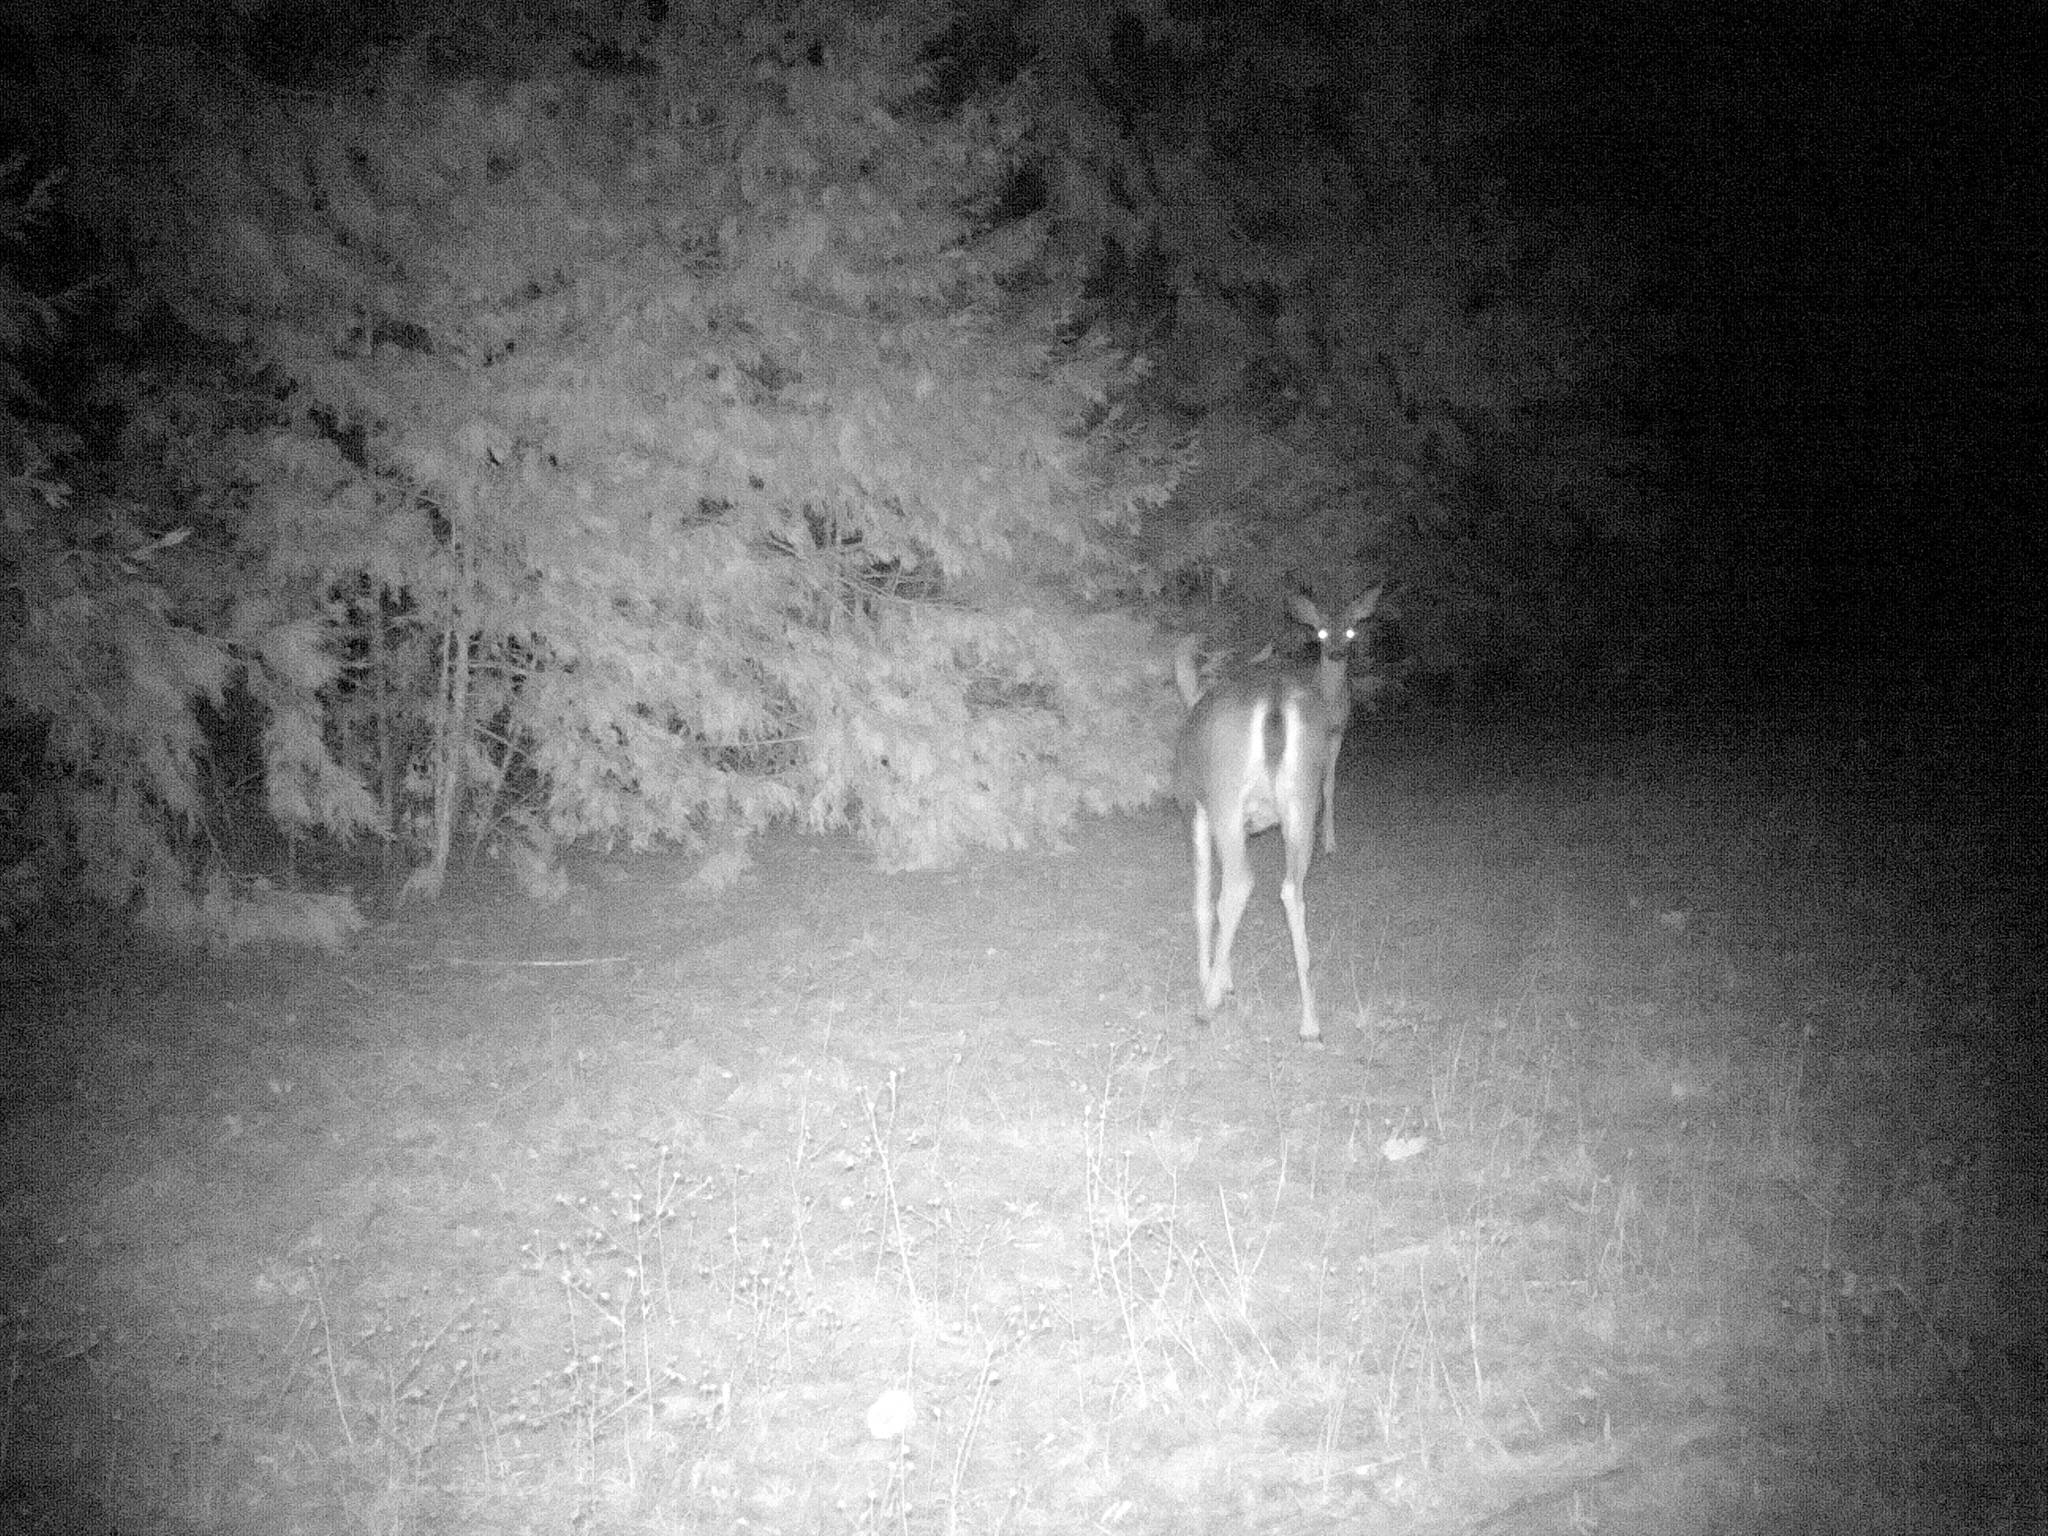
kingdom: Animalia
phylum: Chordata
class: Mammalia
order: Artiodactyla
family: Cervidae
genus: Odocoileus
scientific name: Odocoileus hemionus
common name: Mule deer
